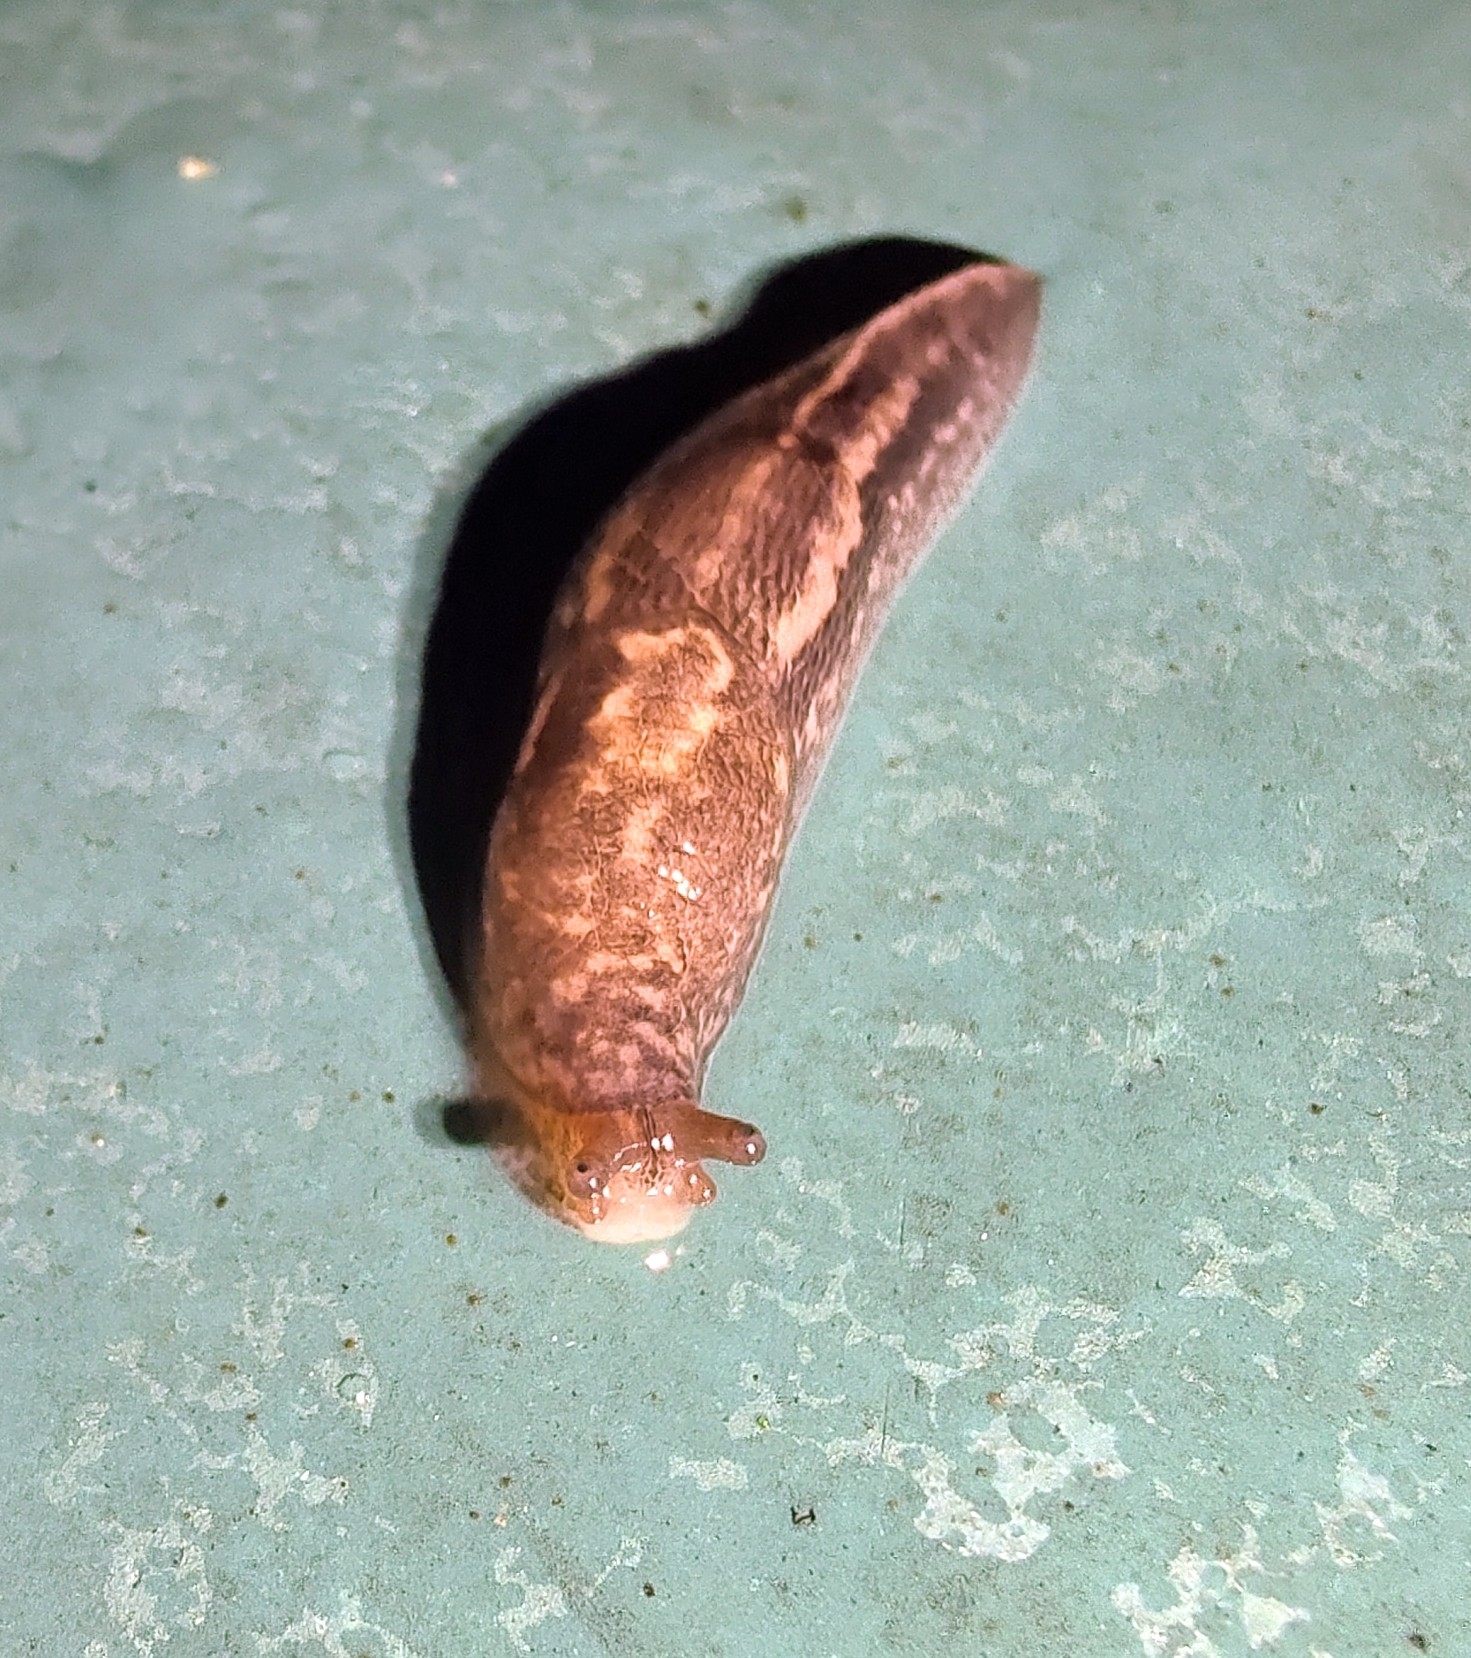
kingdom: Animalia
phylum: Mollusca
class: Gastropoda
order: Stylommatophora
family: Limacidae
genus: Limax
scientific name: Limax maximus
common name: Great grey slug
